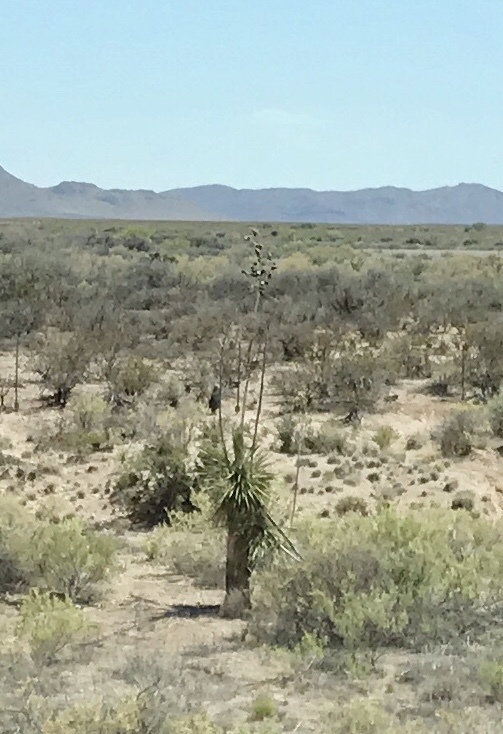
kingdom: Plantae
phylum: Tracheophyta
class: Liliopsida
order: Asparagales
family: Asparagaceae
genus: Yucca
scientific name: Yucca elata
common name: Palmella
